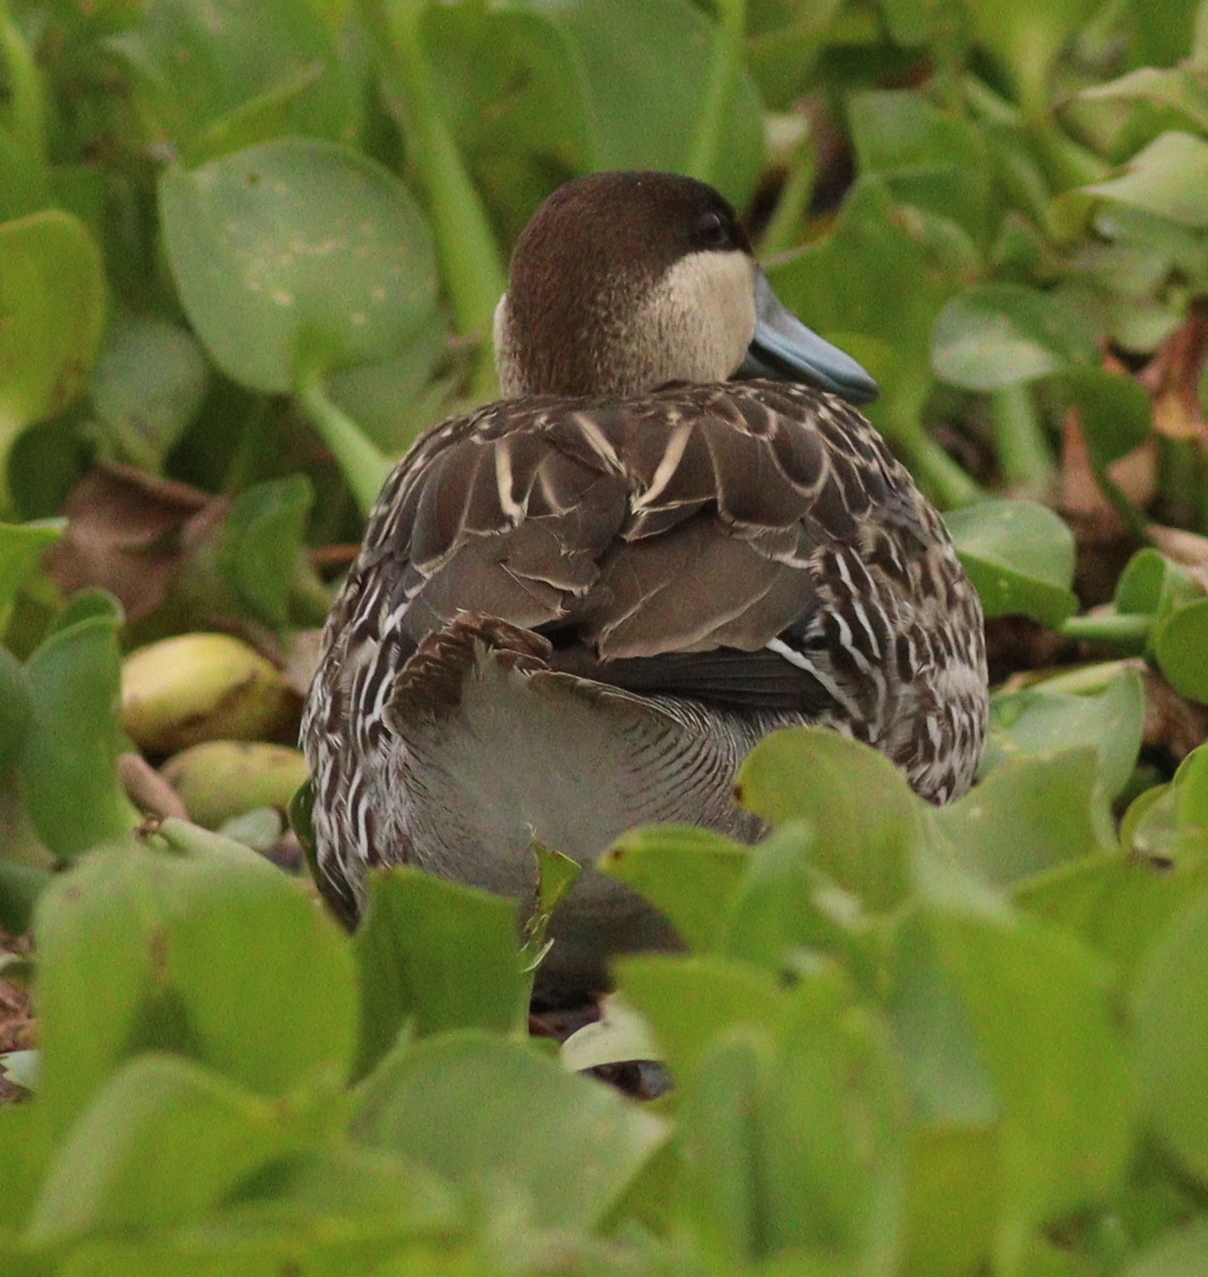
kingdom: Animalia
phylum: Chordata
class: Aves
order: Anseriformes
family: Anatidae
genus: Spatula
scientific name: Spatula versicolor
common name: Silver teal
